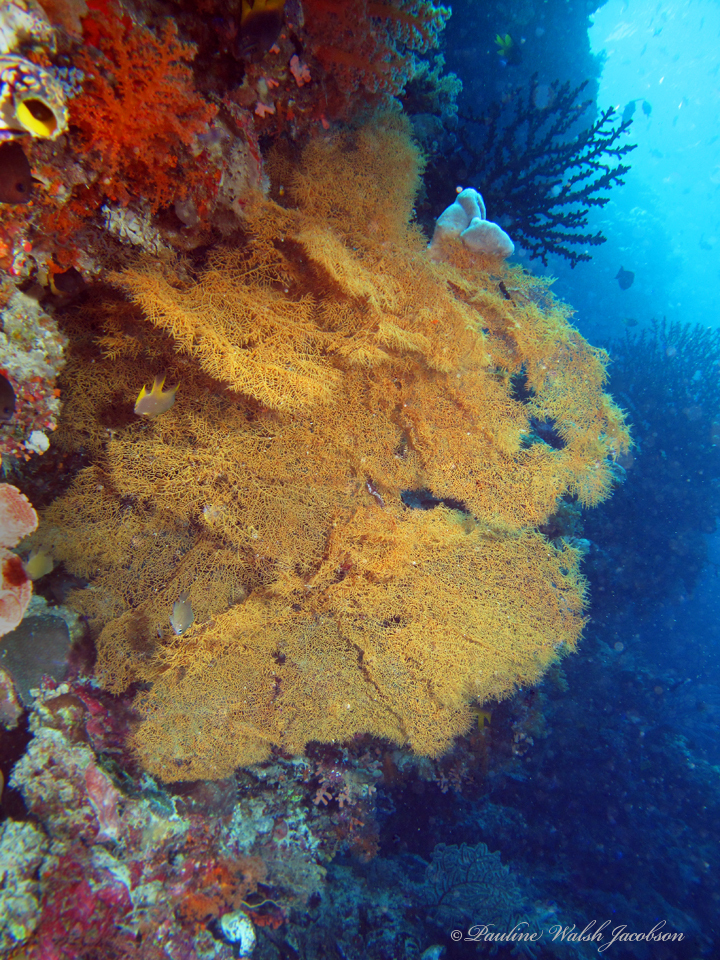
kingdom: Animalia
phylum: Cnidaria
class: Anthozoa
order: Antipatharia
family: Aphanipathidae
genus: Rhipidipathes
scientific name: Rhipidipathes reticulata
